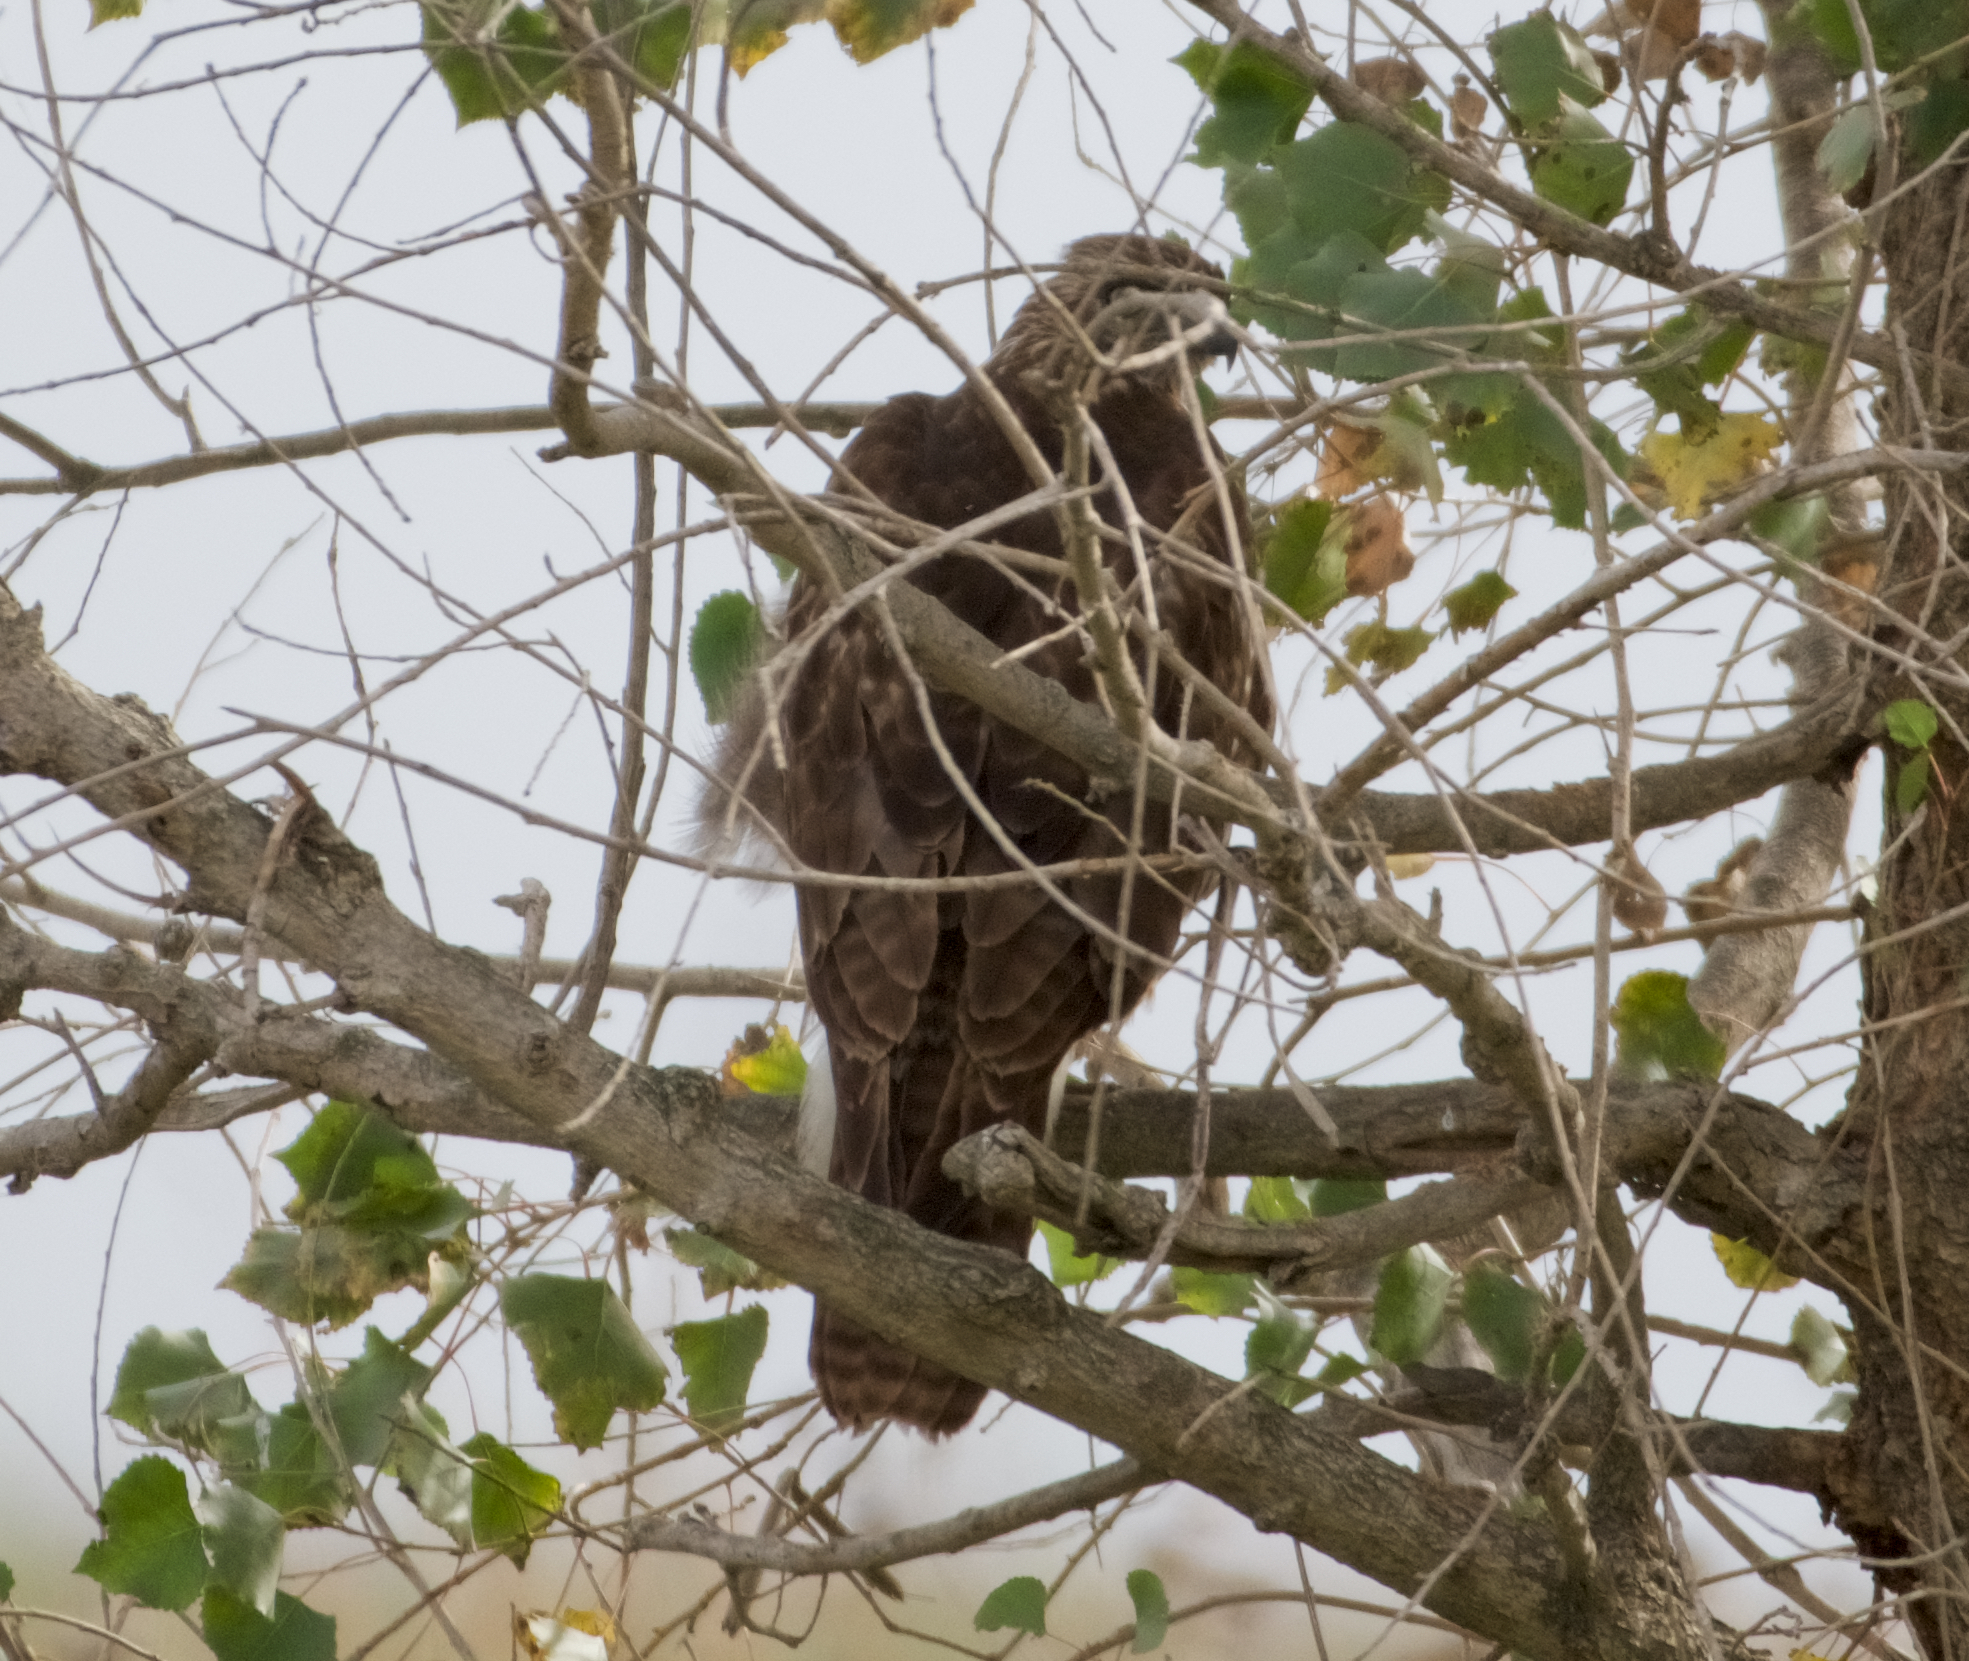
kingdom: Animalia
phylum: Chordata
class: Aves
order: Accipitriformes
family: Accipitridae
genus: Buteo
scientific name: Buteo jamaicensis
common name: Red-tailed hawk
